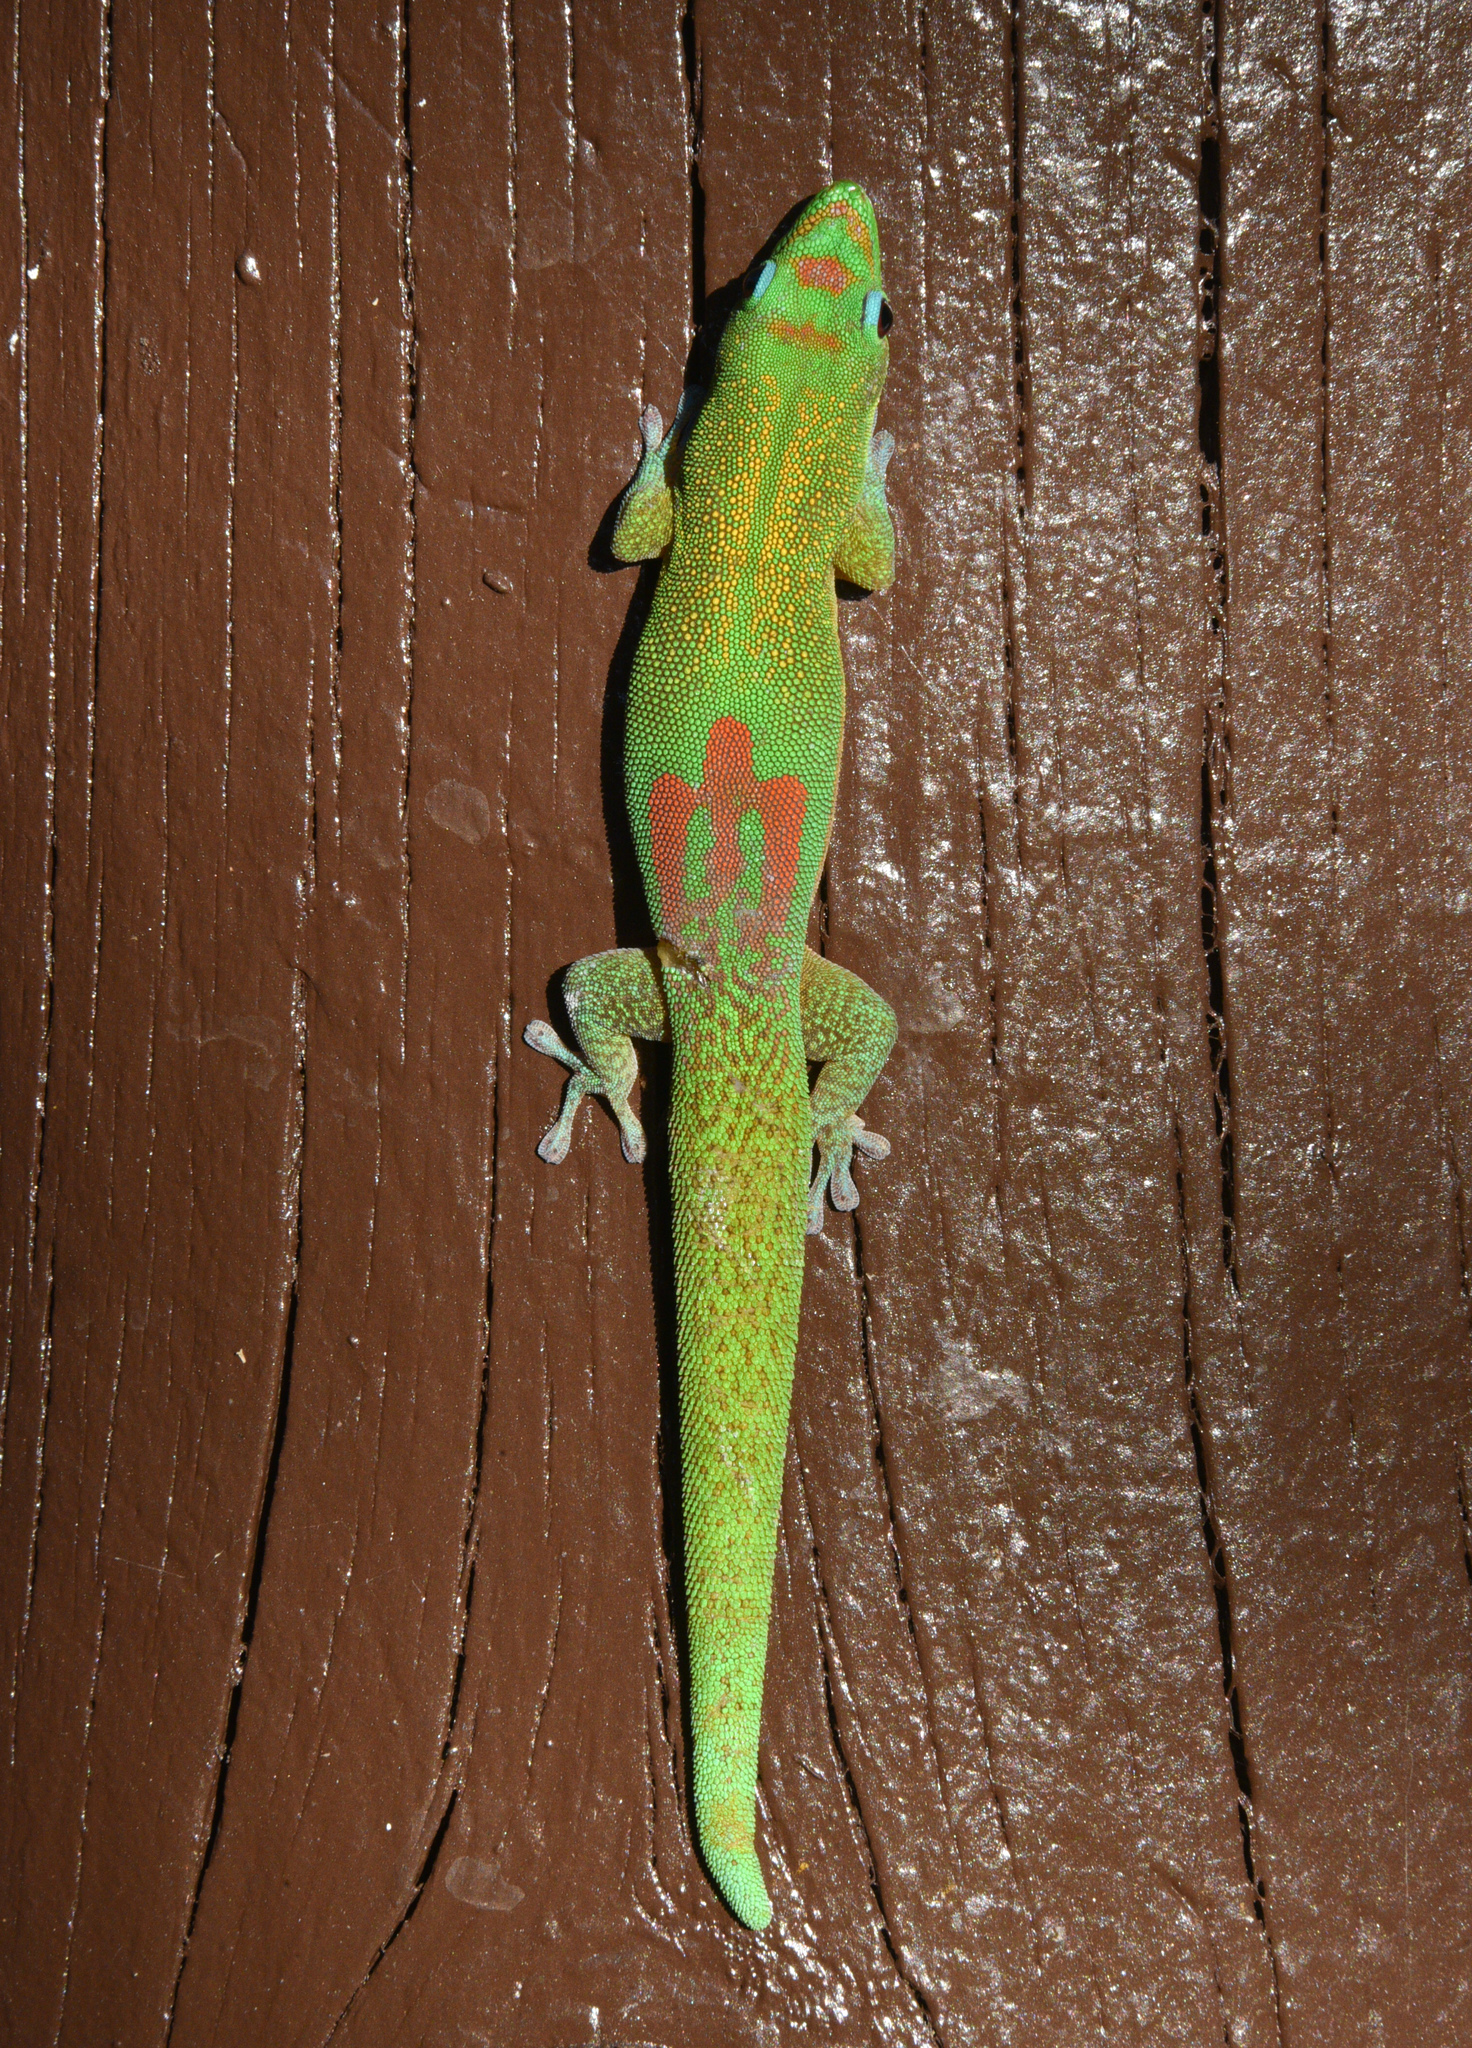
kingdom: Animalia
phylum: Chordata
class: Squamata
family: Gekkonidae
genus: Phelsuma
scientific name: Phelsuma laticauda
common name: Gold dust day gecko
